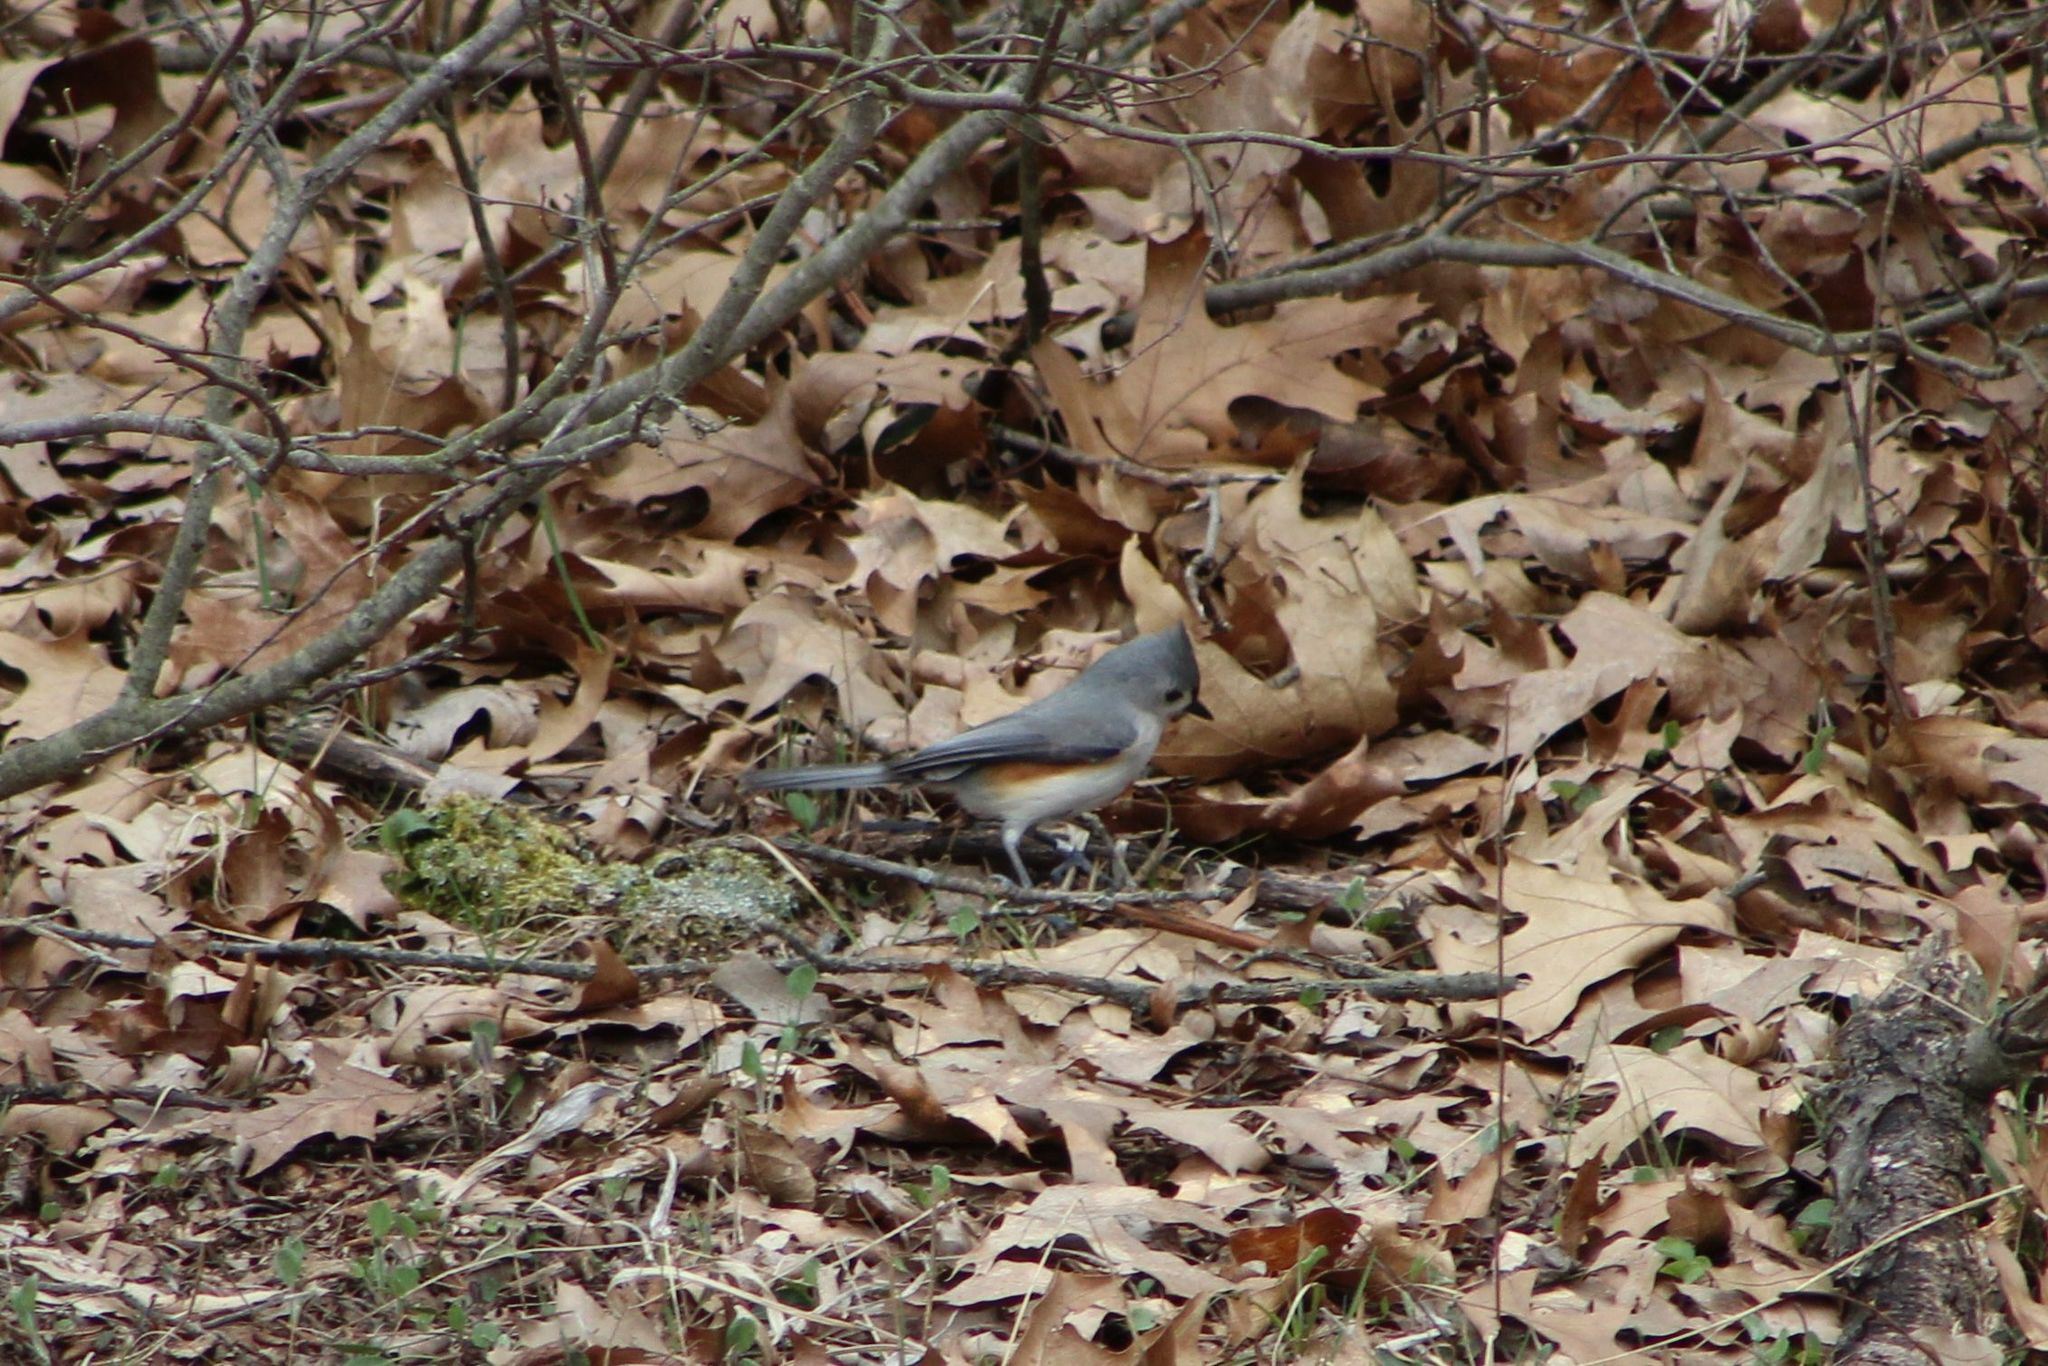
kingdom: Animalia
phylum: Chordata
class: Aves
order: Passeriformes
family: Paridae
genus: Baeolophus
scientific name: Baeolophus bicolor
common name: Tufted titmouse
